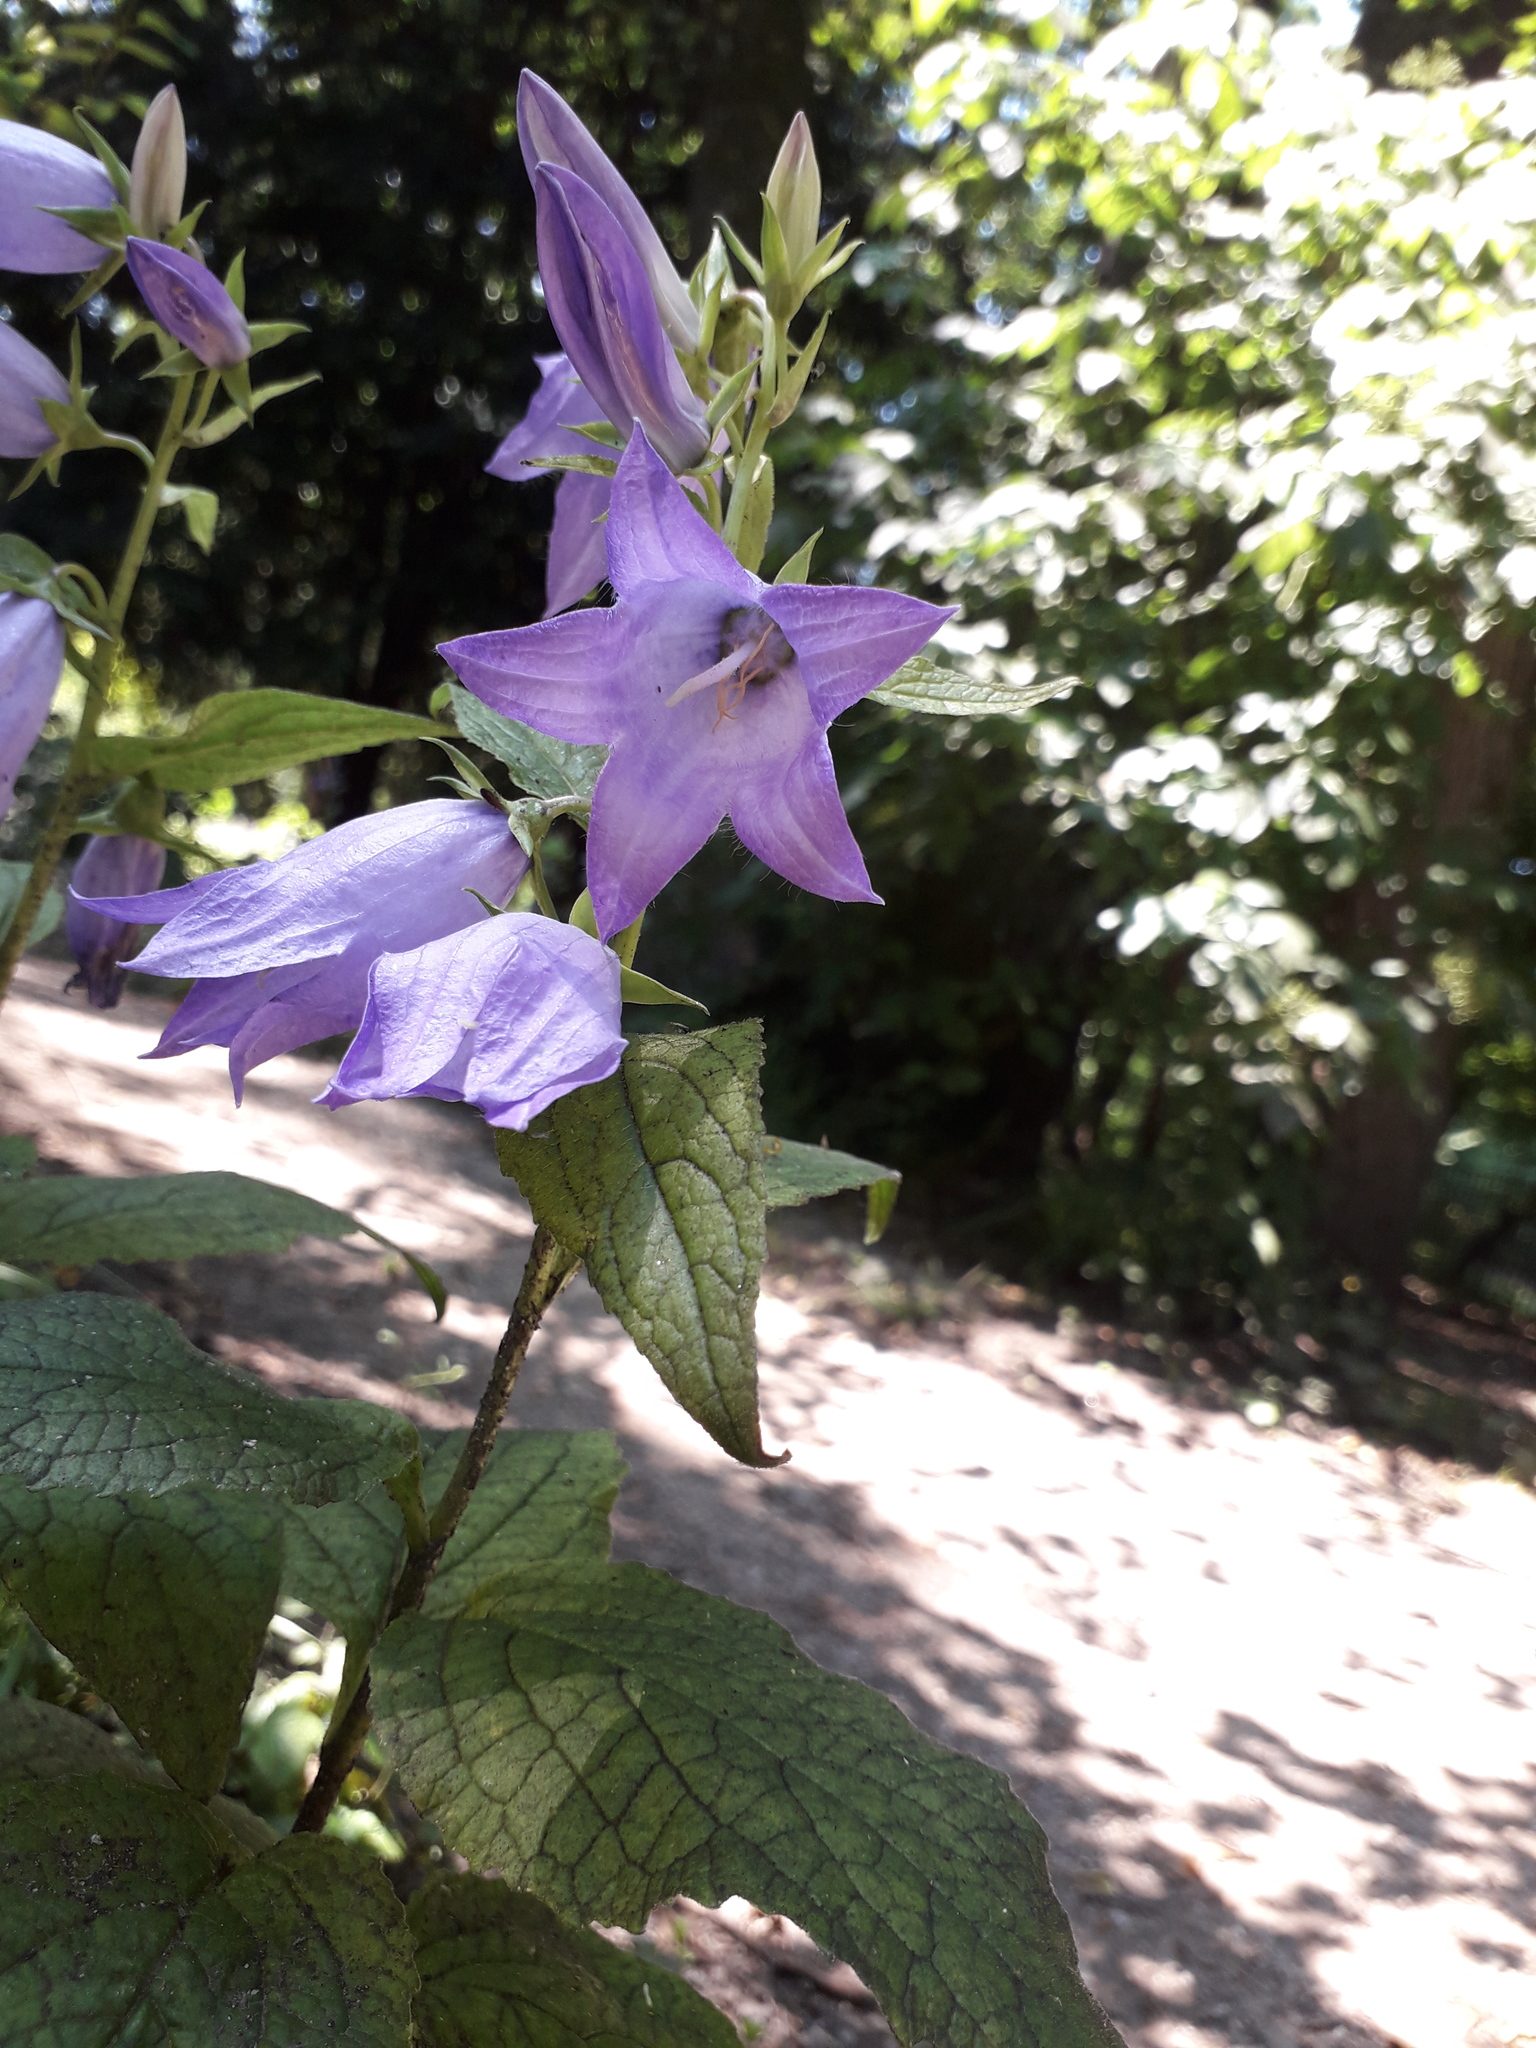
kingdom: Plantae
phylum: Tracheophyta
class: Magnoliopsida
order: Asterales
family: Campanulaceae
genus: Campanula
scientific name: Campanula latifolia
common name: Giant bellflower
